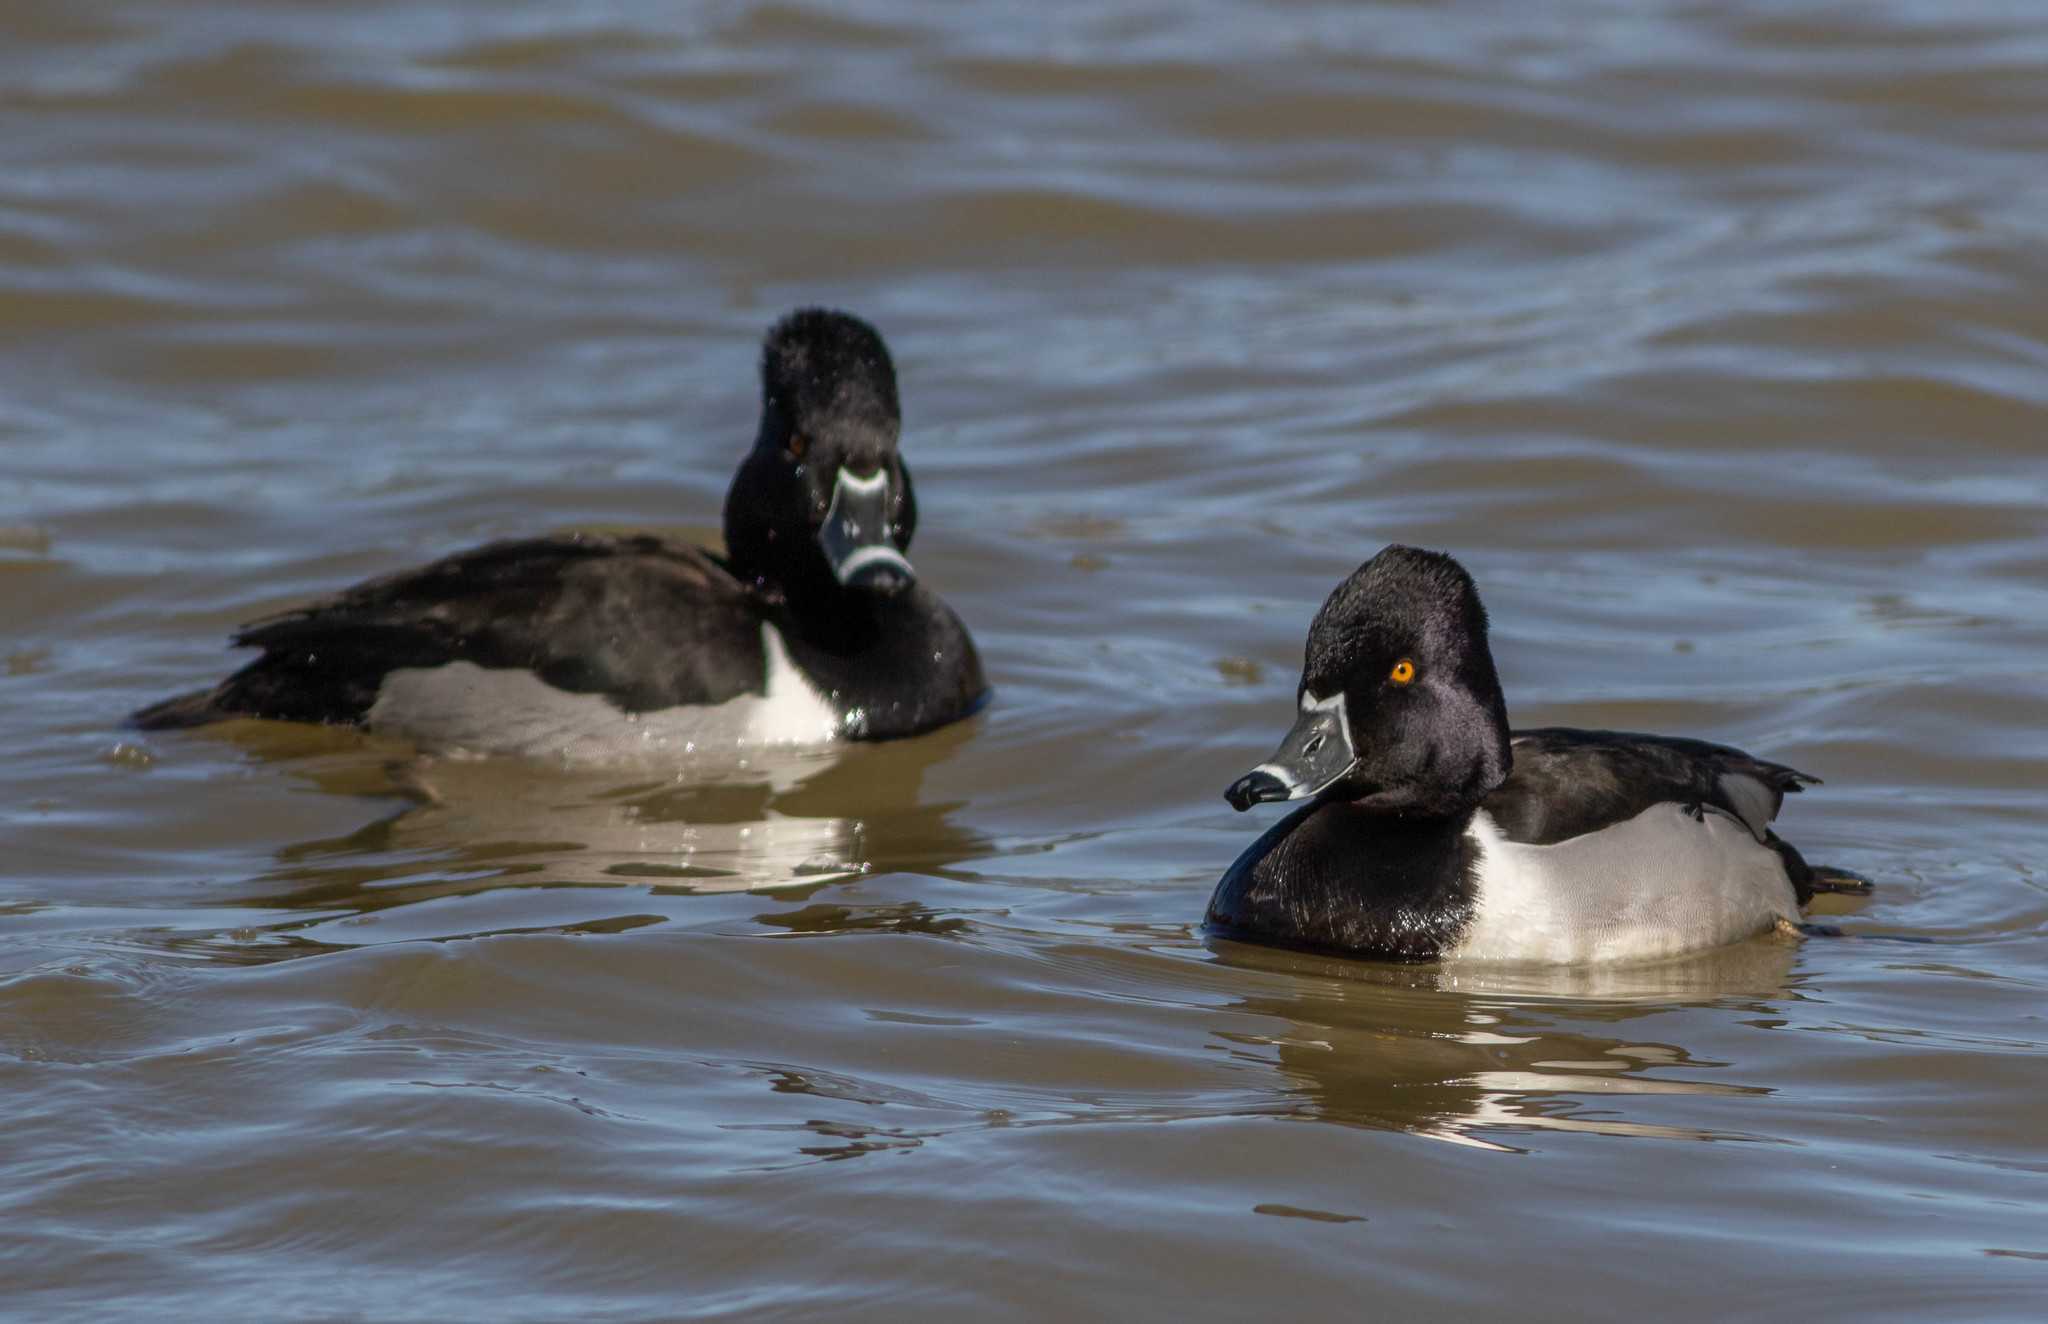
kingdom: Animalia
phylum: Chordata
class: Aves
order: Anseriformes
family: Anatidae
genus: Aythya
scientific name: Aythya collaris
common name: Ring-necked duck
